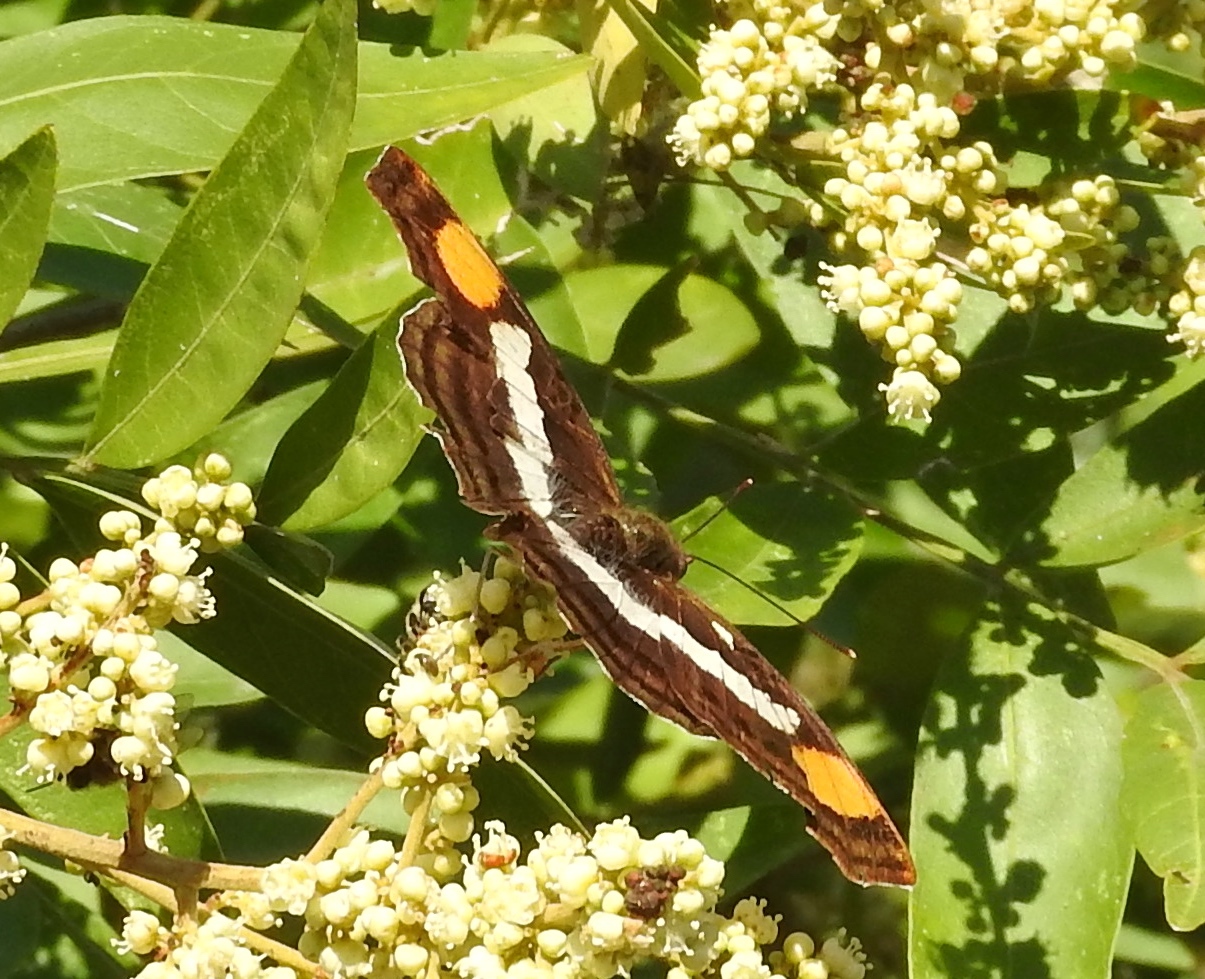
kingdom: Animalia
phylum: Arthropoda
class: Insecta
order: Lepidoptera
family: Nymphalidae
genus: Doxocopa
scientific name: Doxocopa laure
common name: Silver emperor
